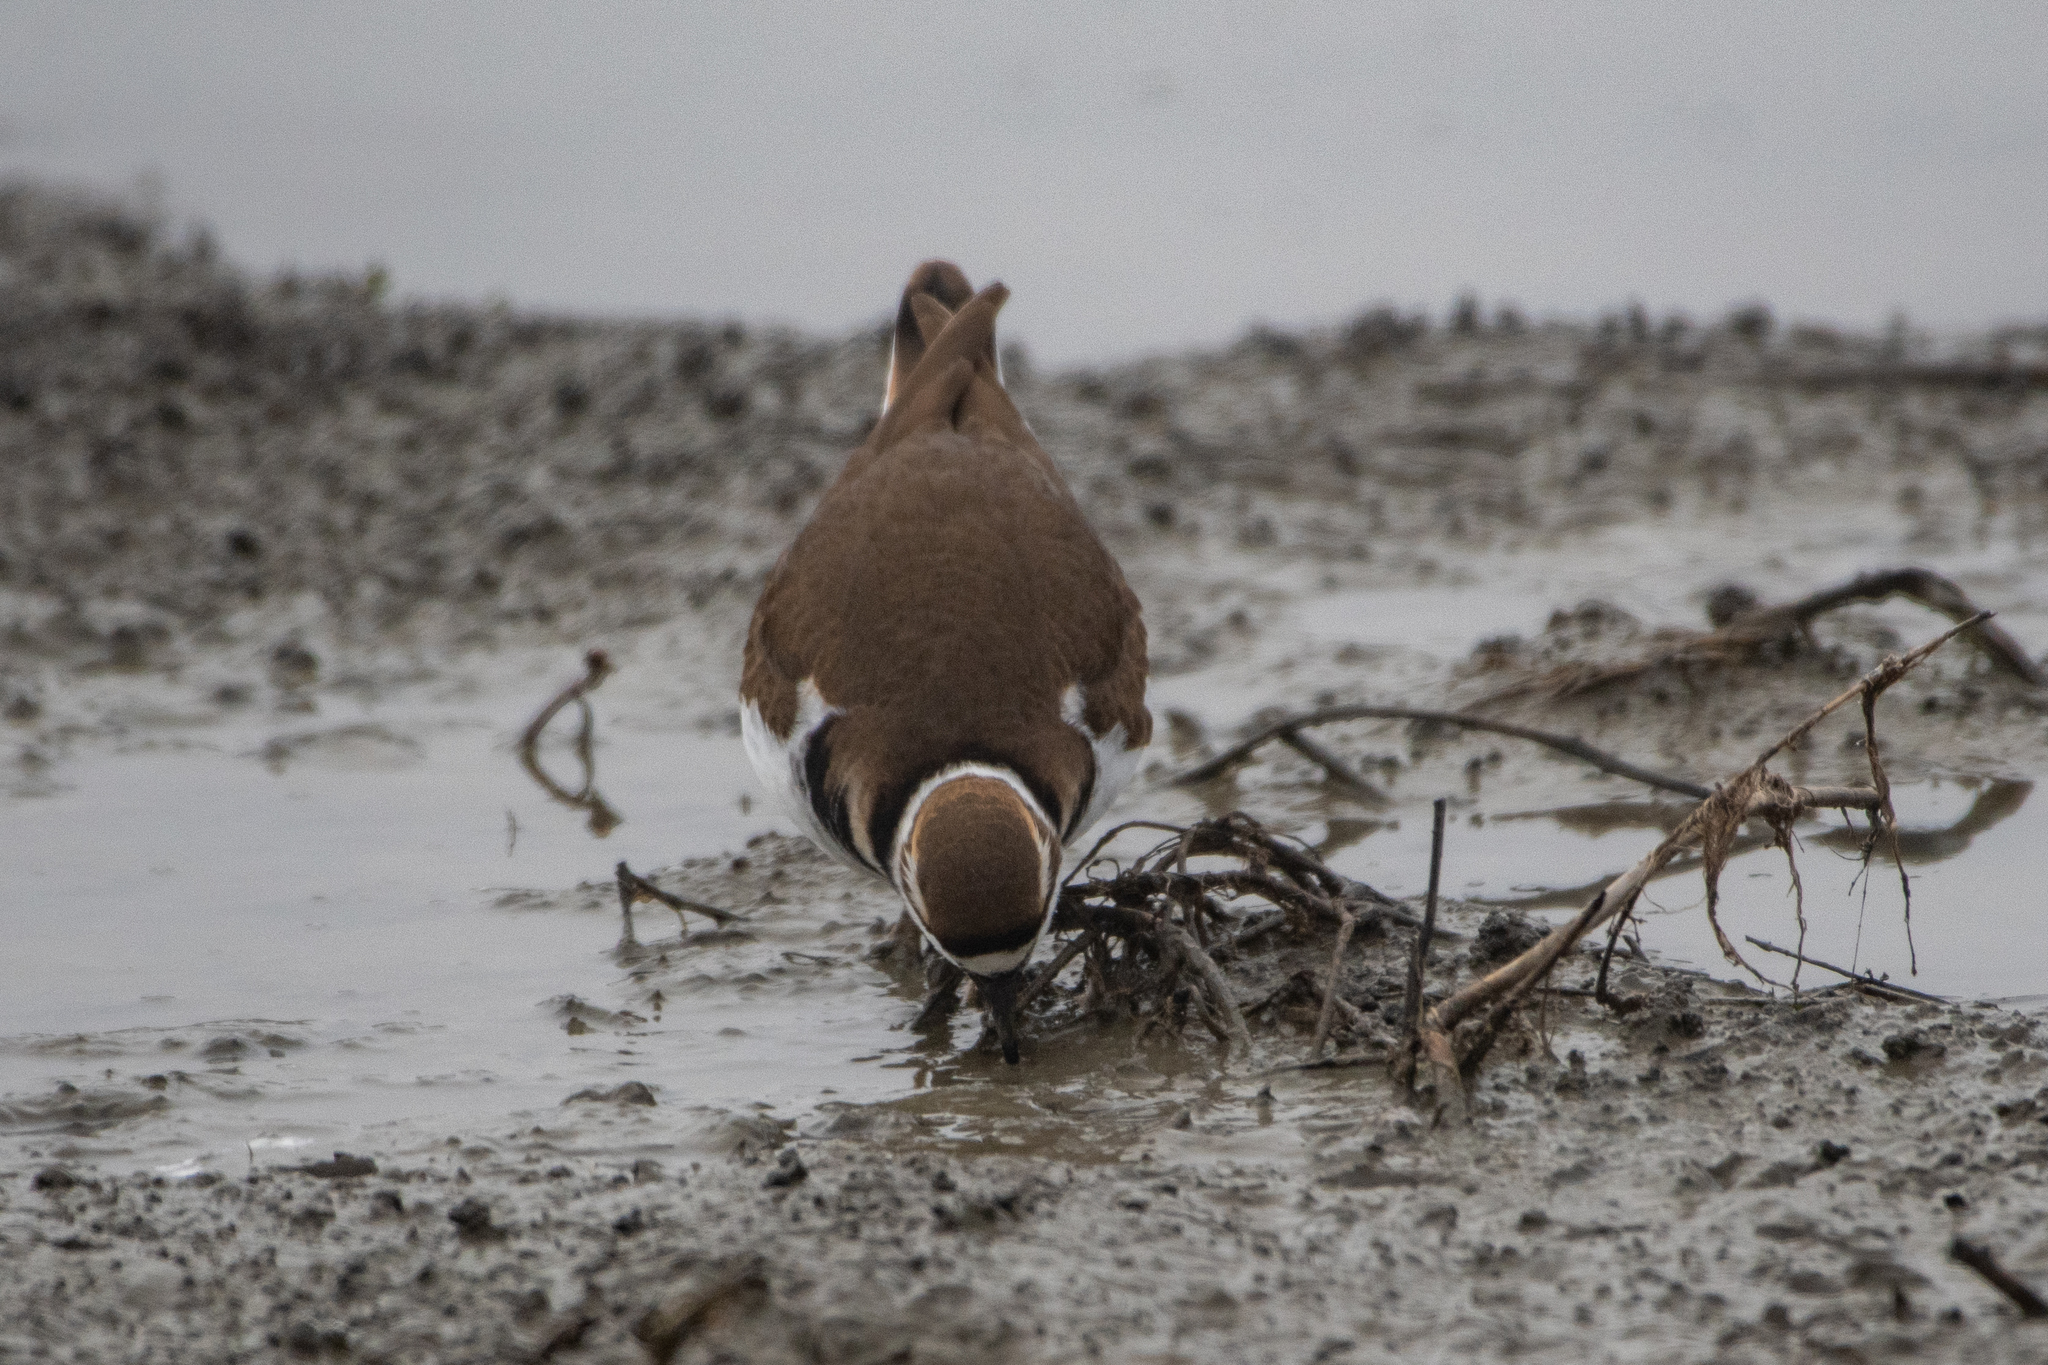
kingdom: Animalia
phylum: Chordata
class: Aves
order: Charadriiformes
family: Charadriidae
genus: Charadrius
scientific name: Charadrius vociferus
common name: Killdeer
